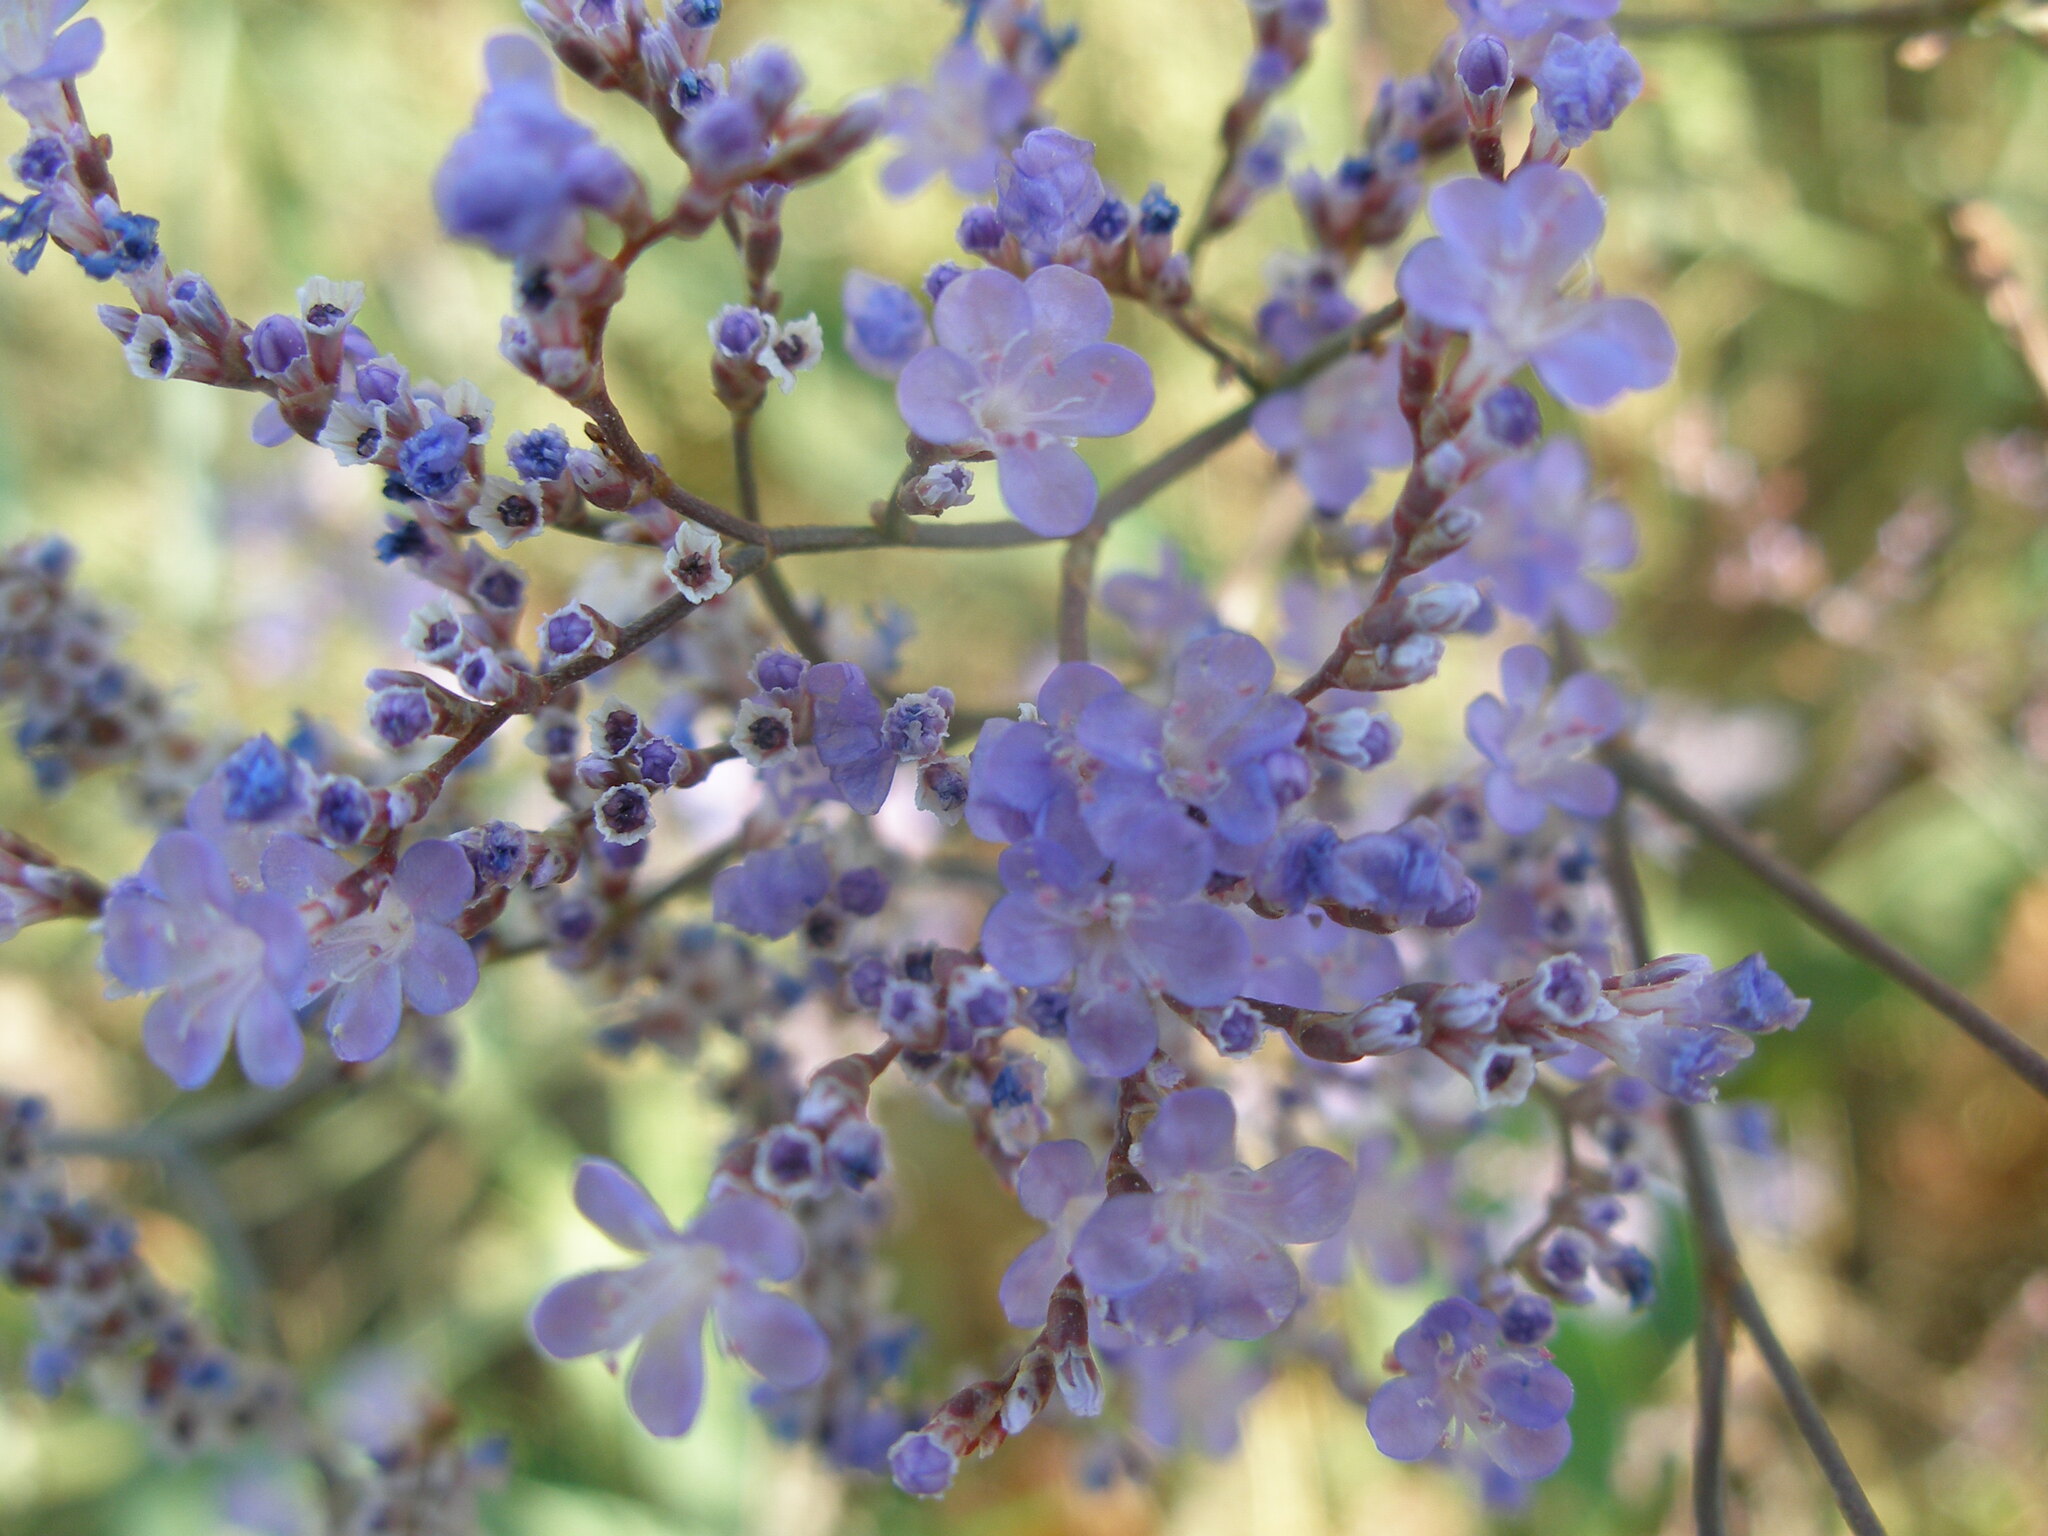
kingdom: Plantae
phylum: Tracheophyta
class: Magnoliopsida
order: Caryophyllales
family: Plumbaginaceae
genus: Limonium
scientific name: Limonium gmelini
